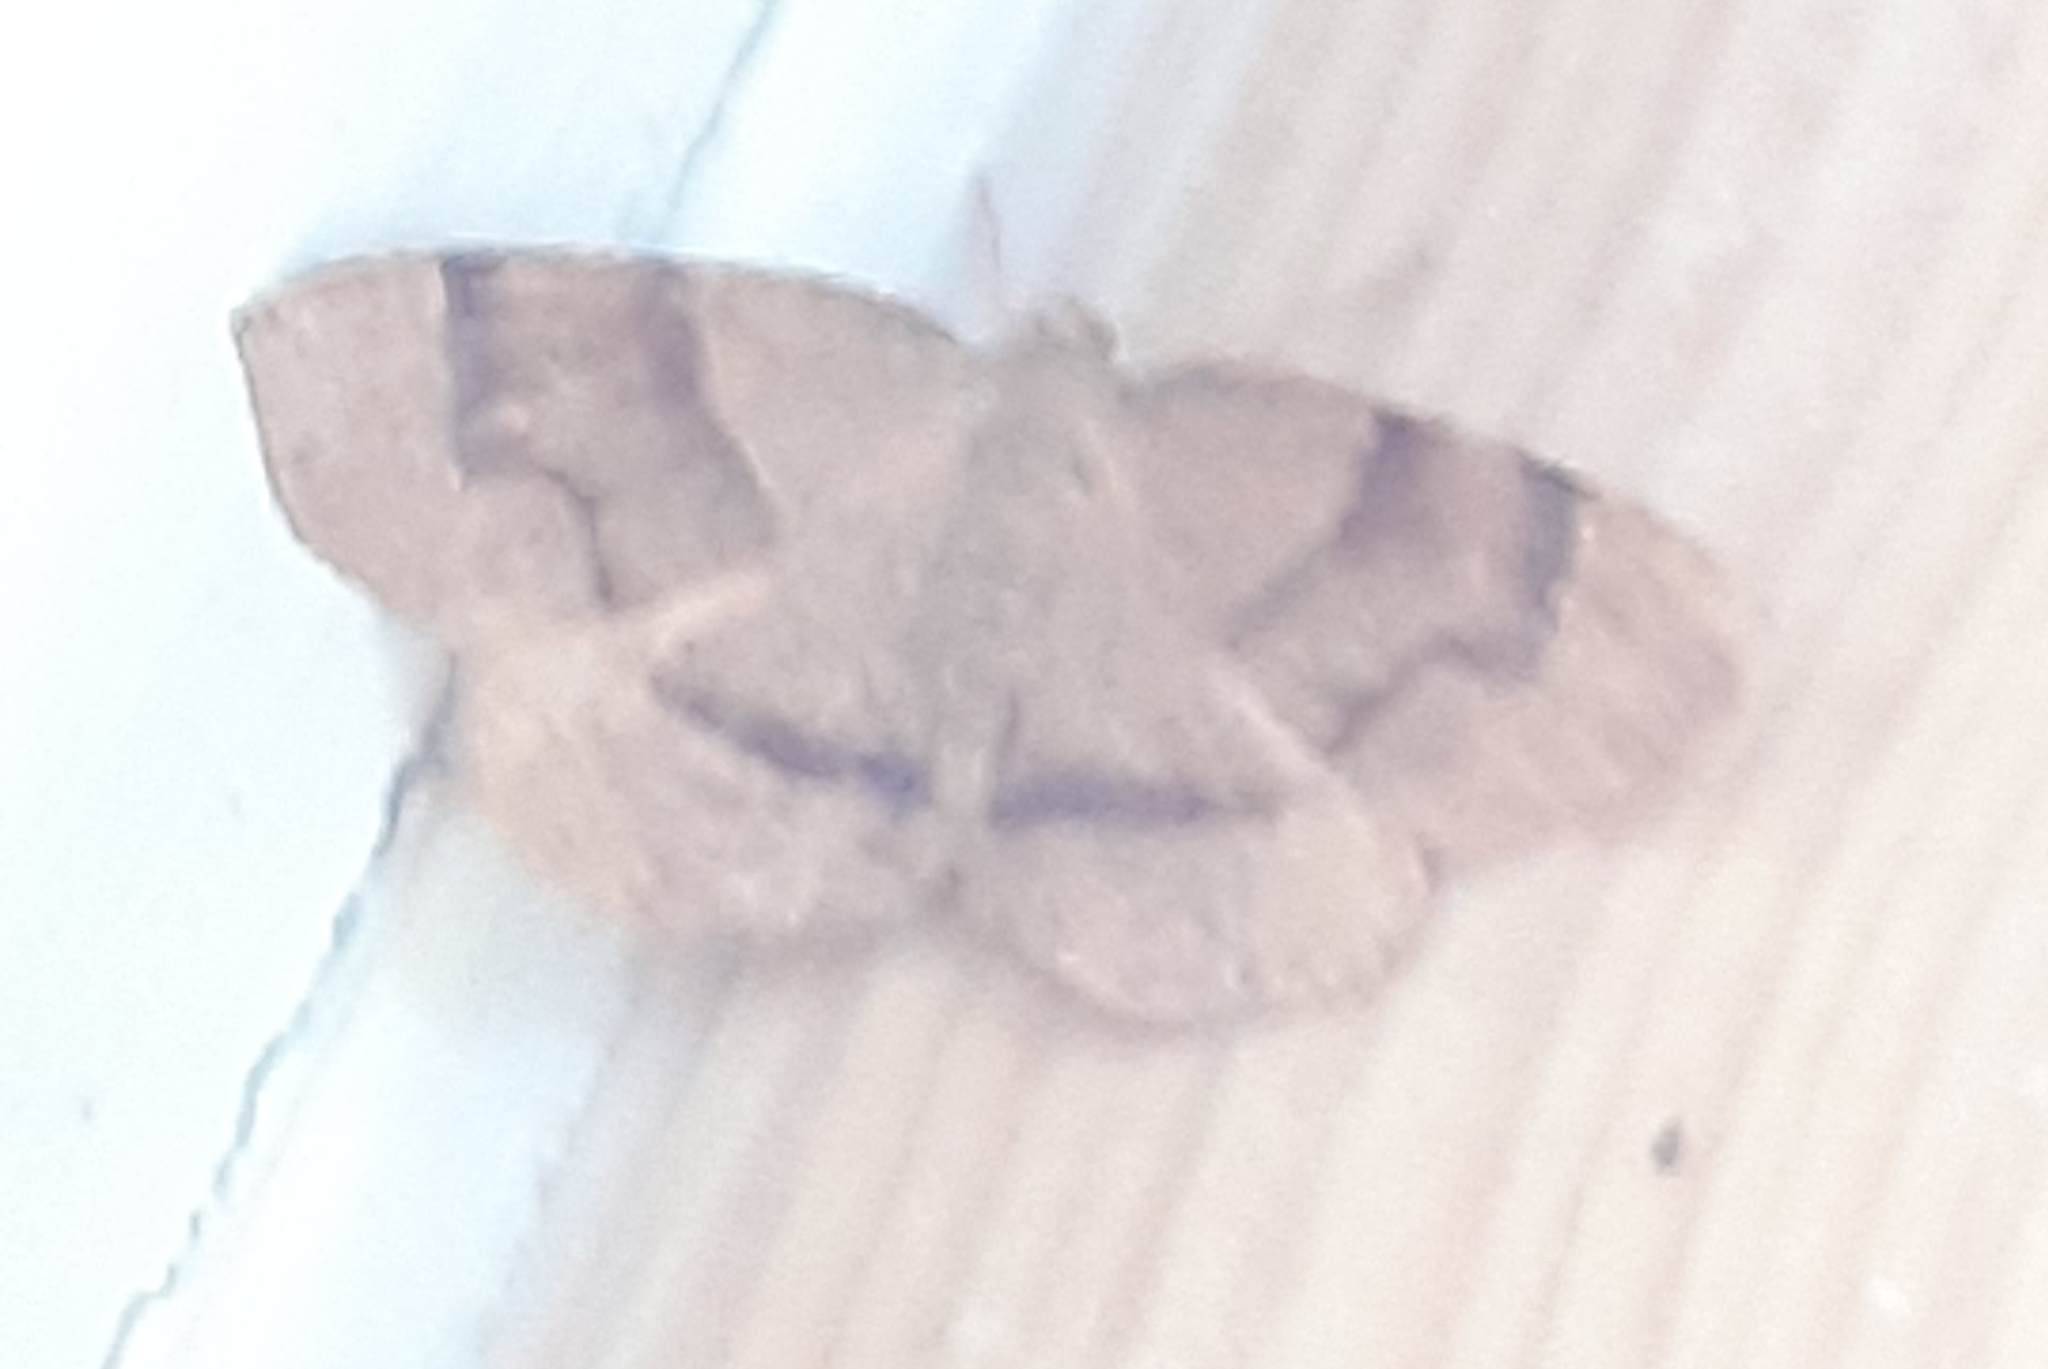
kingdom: Animalia
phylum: Arthropoda
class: Insecta
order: Lepidoptera
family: Geometridae
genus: Plagodis
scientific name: Plagodis pulveraria
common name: Barred umber
